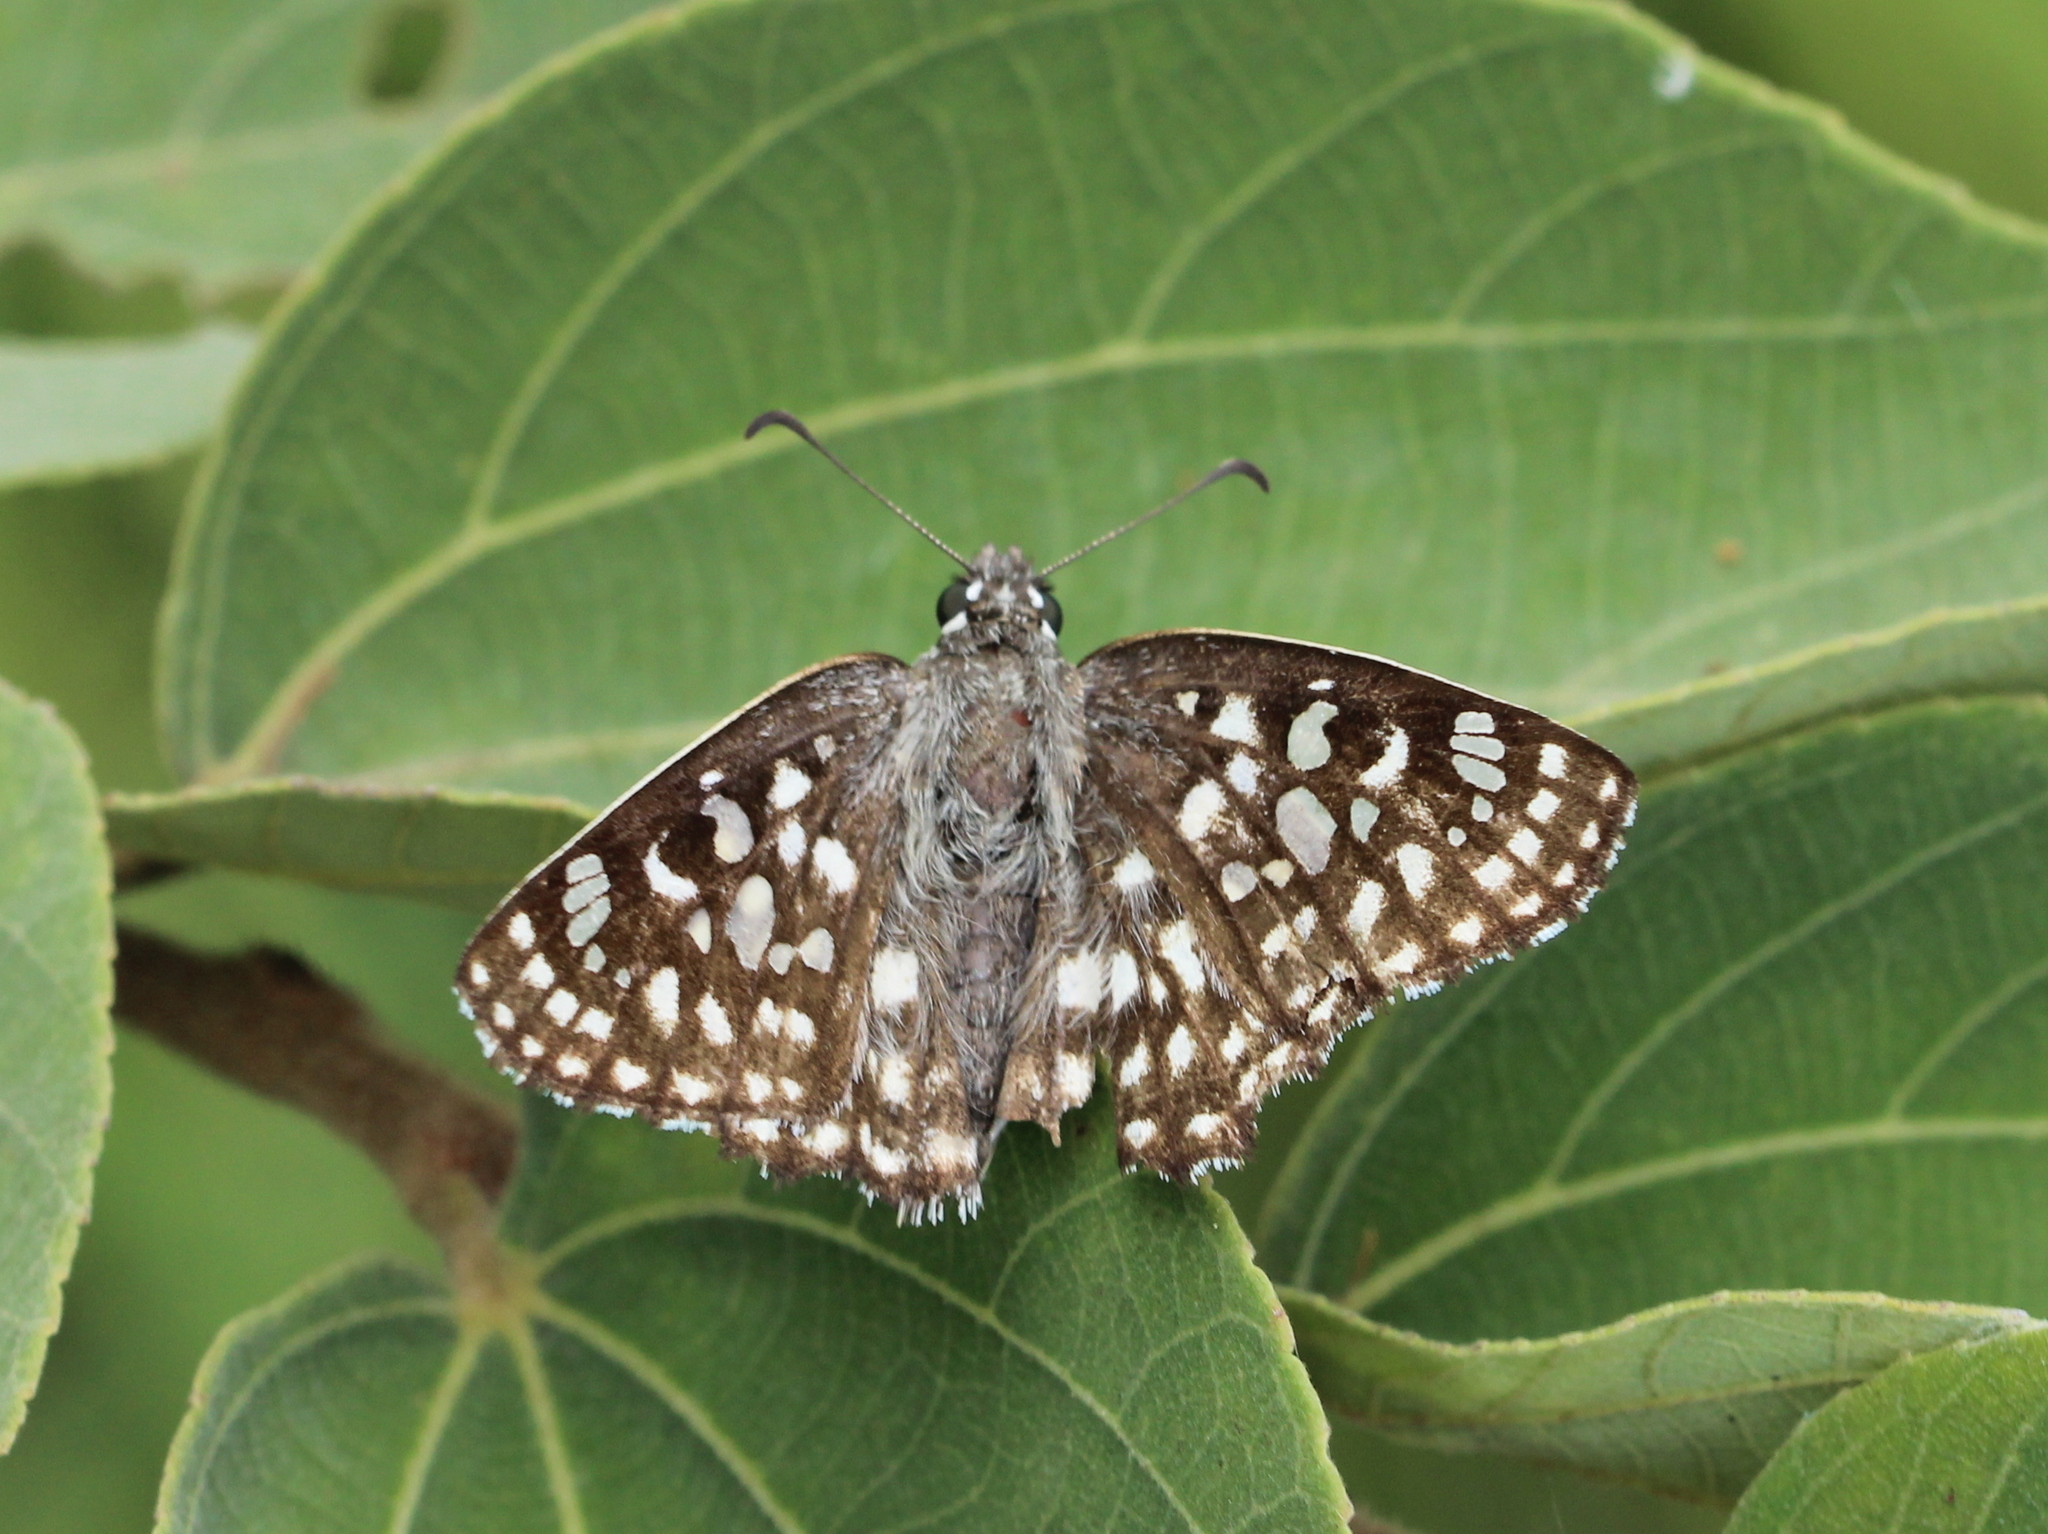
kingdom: Animalia
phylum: Arthropoda
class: Insecta
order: Lepidoptera
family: Hesperiidae
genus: Caprona
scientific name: Caprona agama
